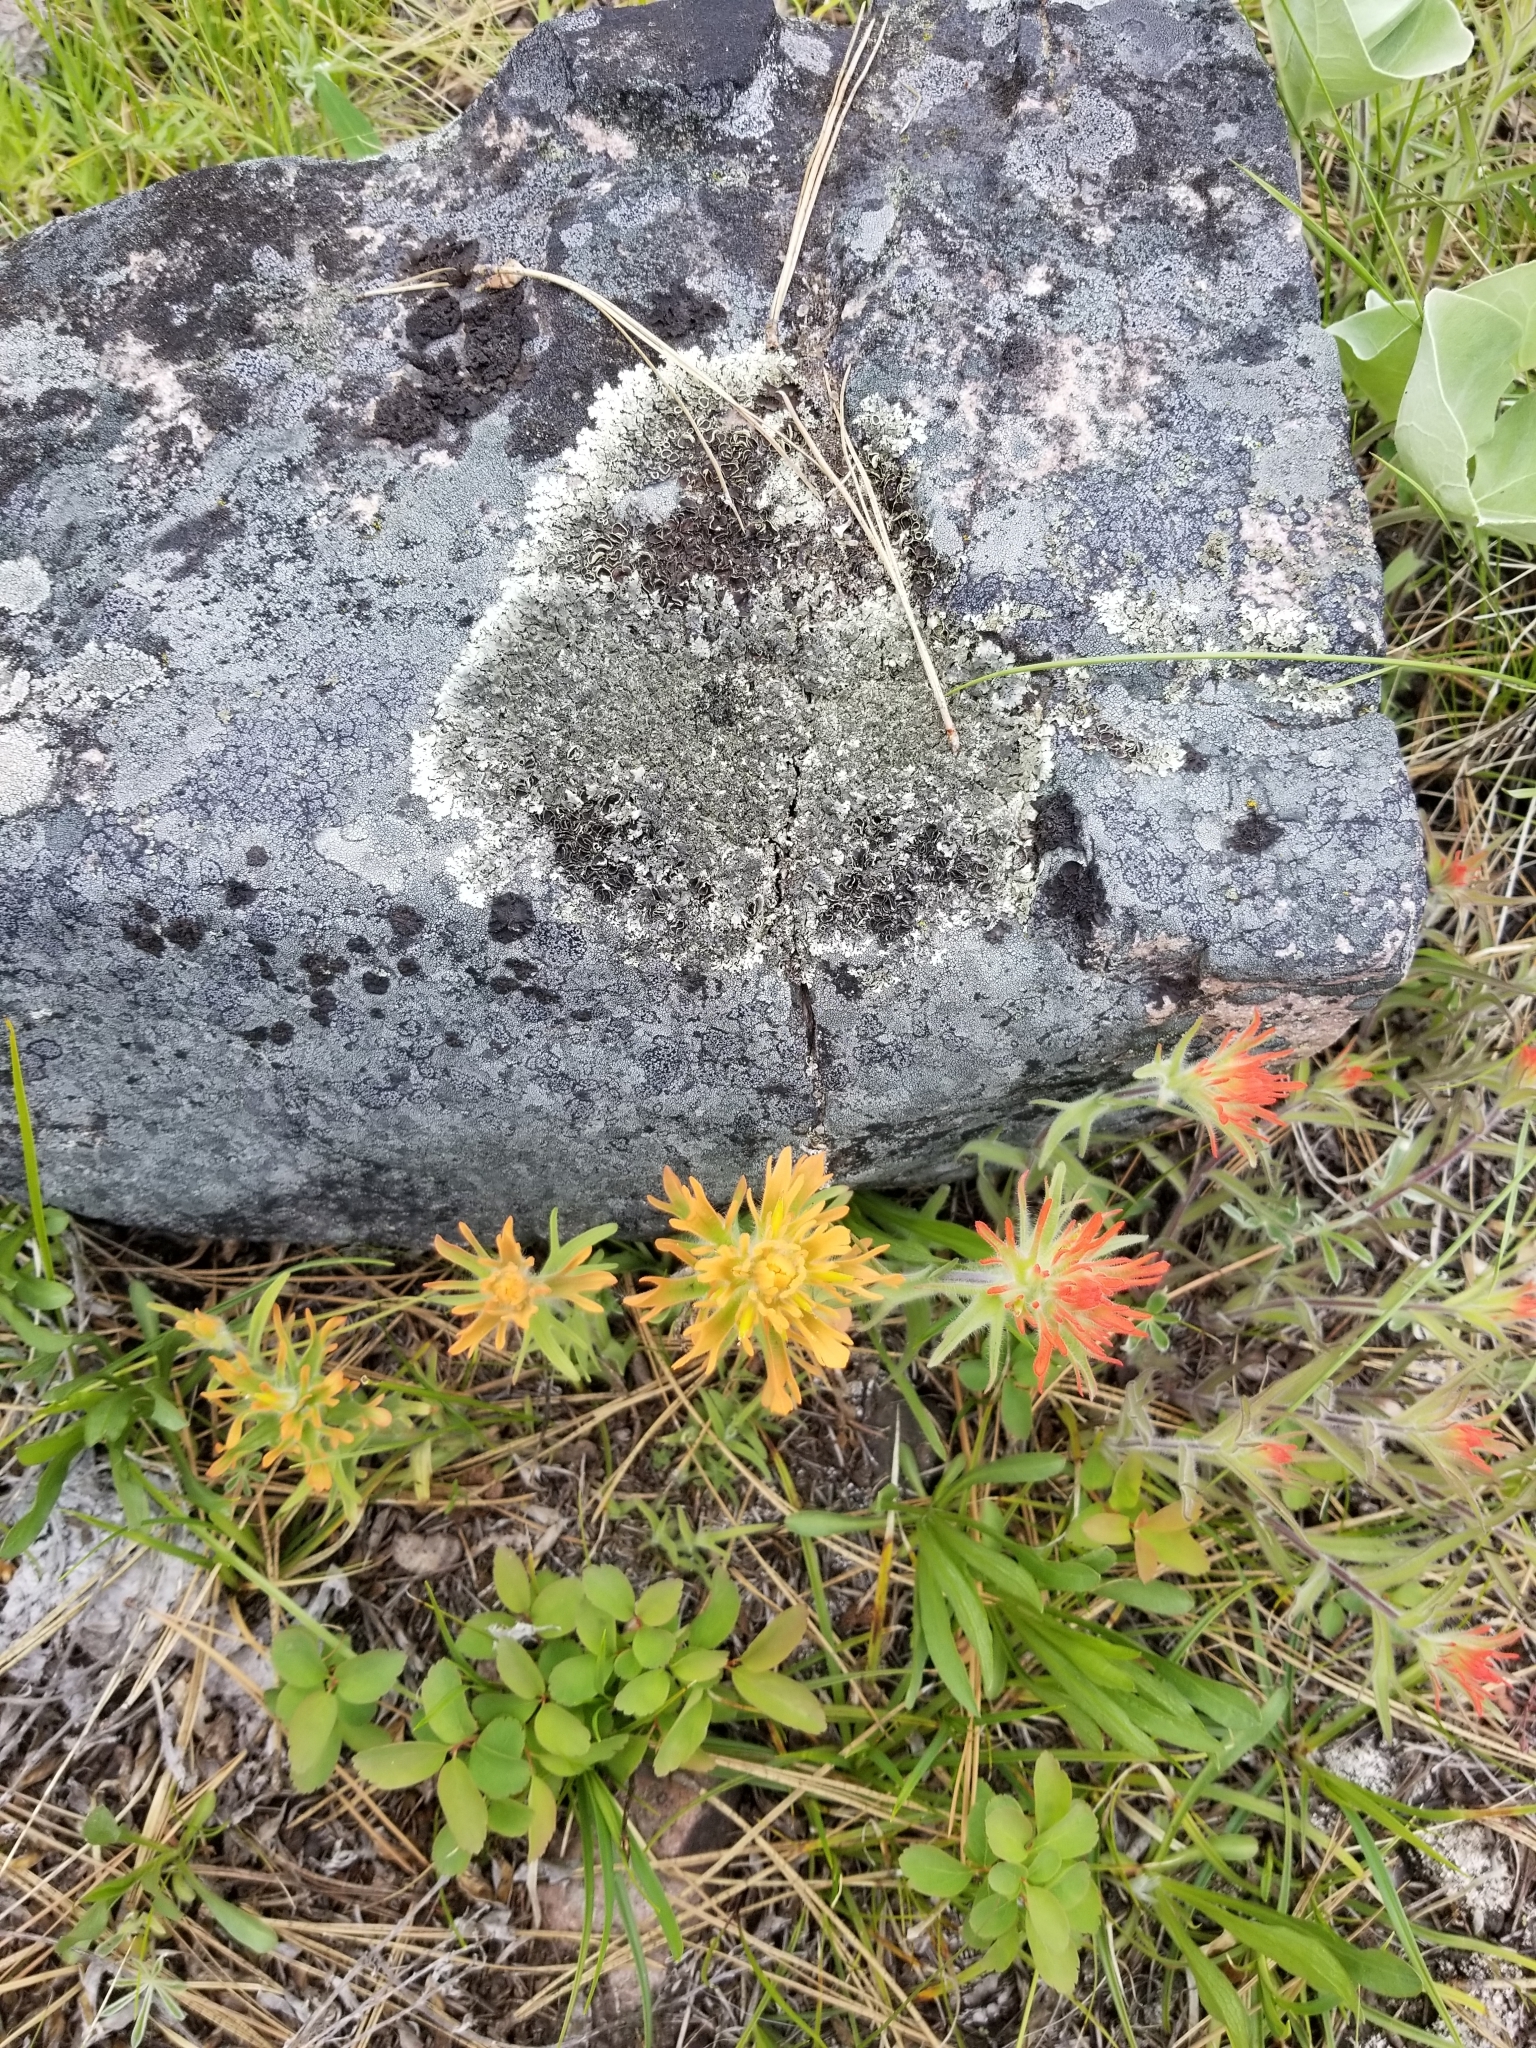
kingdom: Plantae
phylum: Tracheophyta
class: Magnoliopsida
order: Lamiales
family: Orobanchaceae
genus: Castilleja
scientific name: Castilleja hispida
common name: Bristly paintbrush
